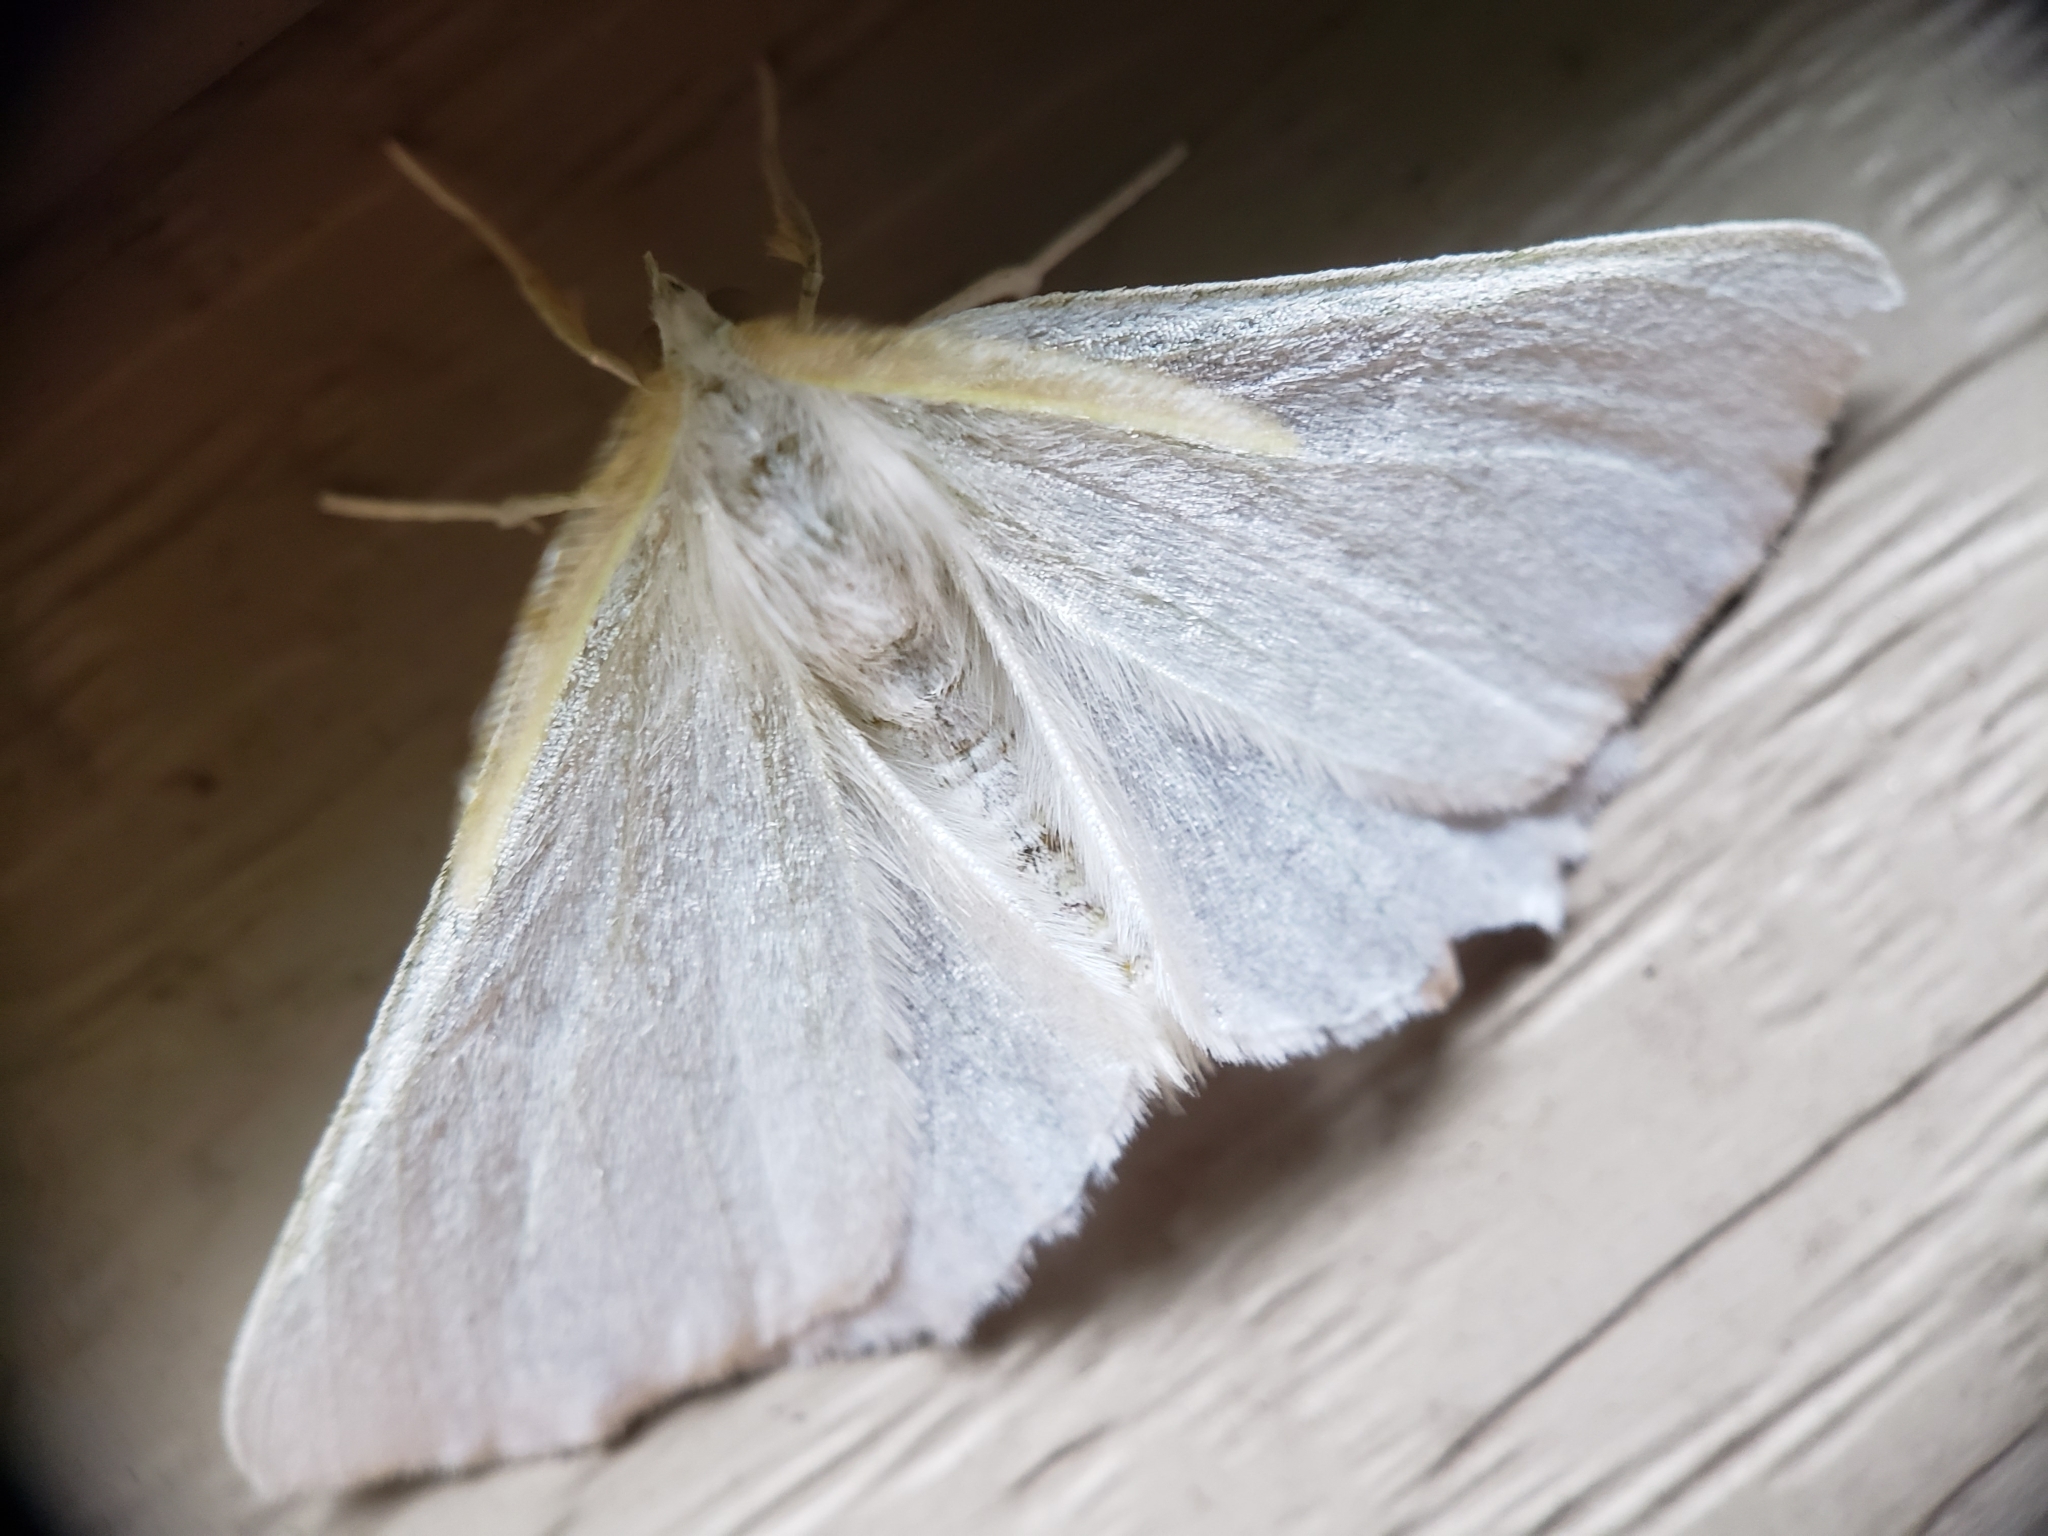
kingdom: Animalia
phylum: Arthropoda
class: Insecta
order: Lepidoptera
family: Geometridae
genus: Ennomos
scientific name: Ennomos subsignaria
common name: Elm spanworm
